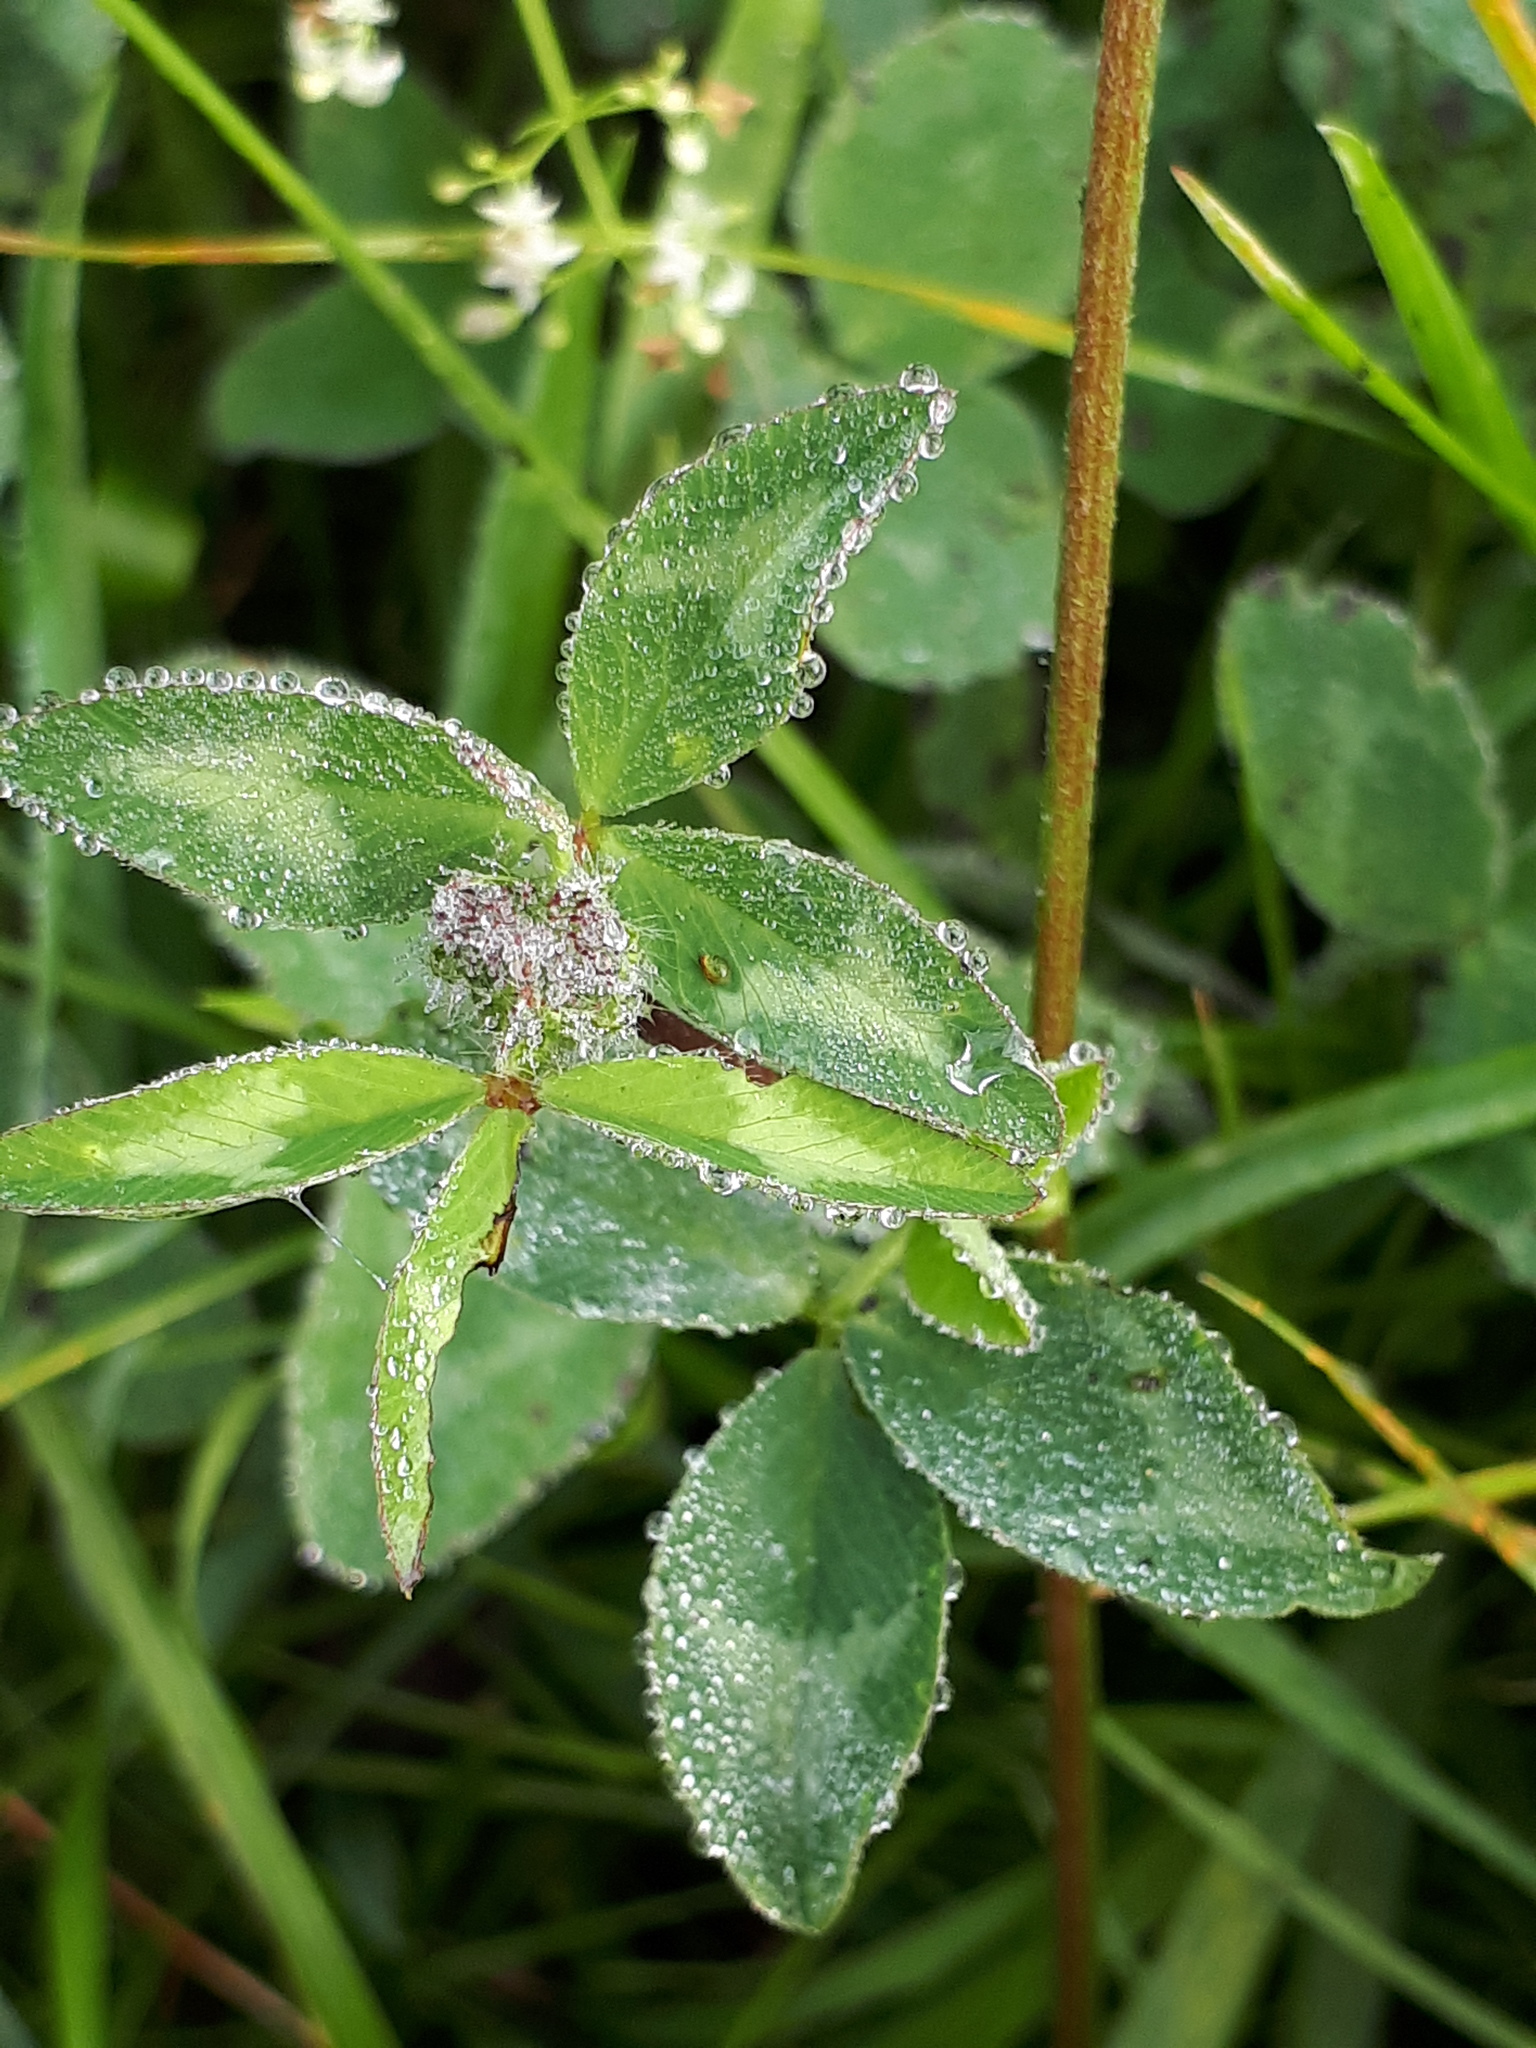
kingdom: Plantae
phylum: Tracheophyta
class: Magnoliopsida
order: Fabales
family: Fabaceae
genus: Trifolium
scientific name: Trifolium pratense
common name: Red clover
